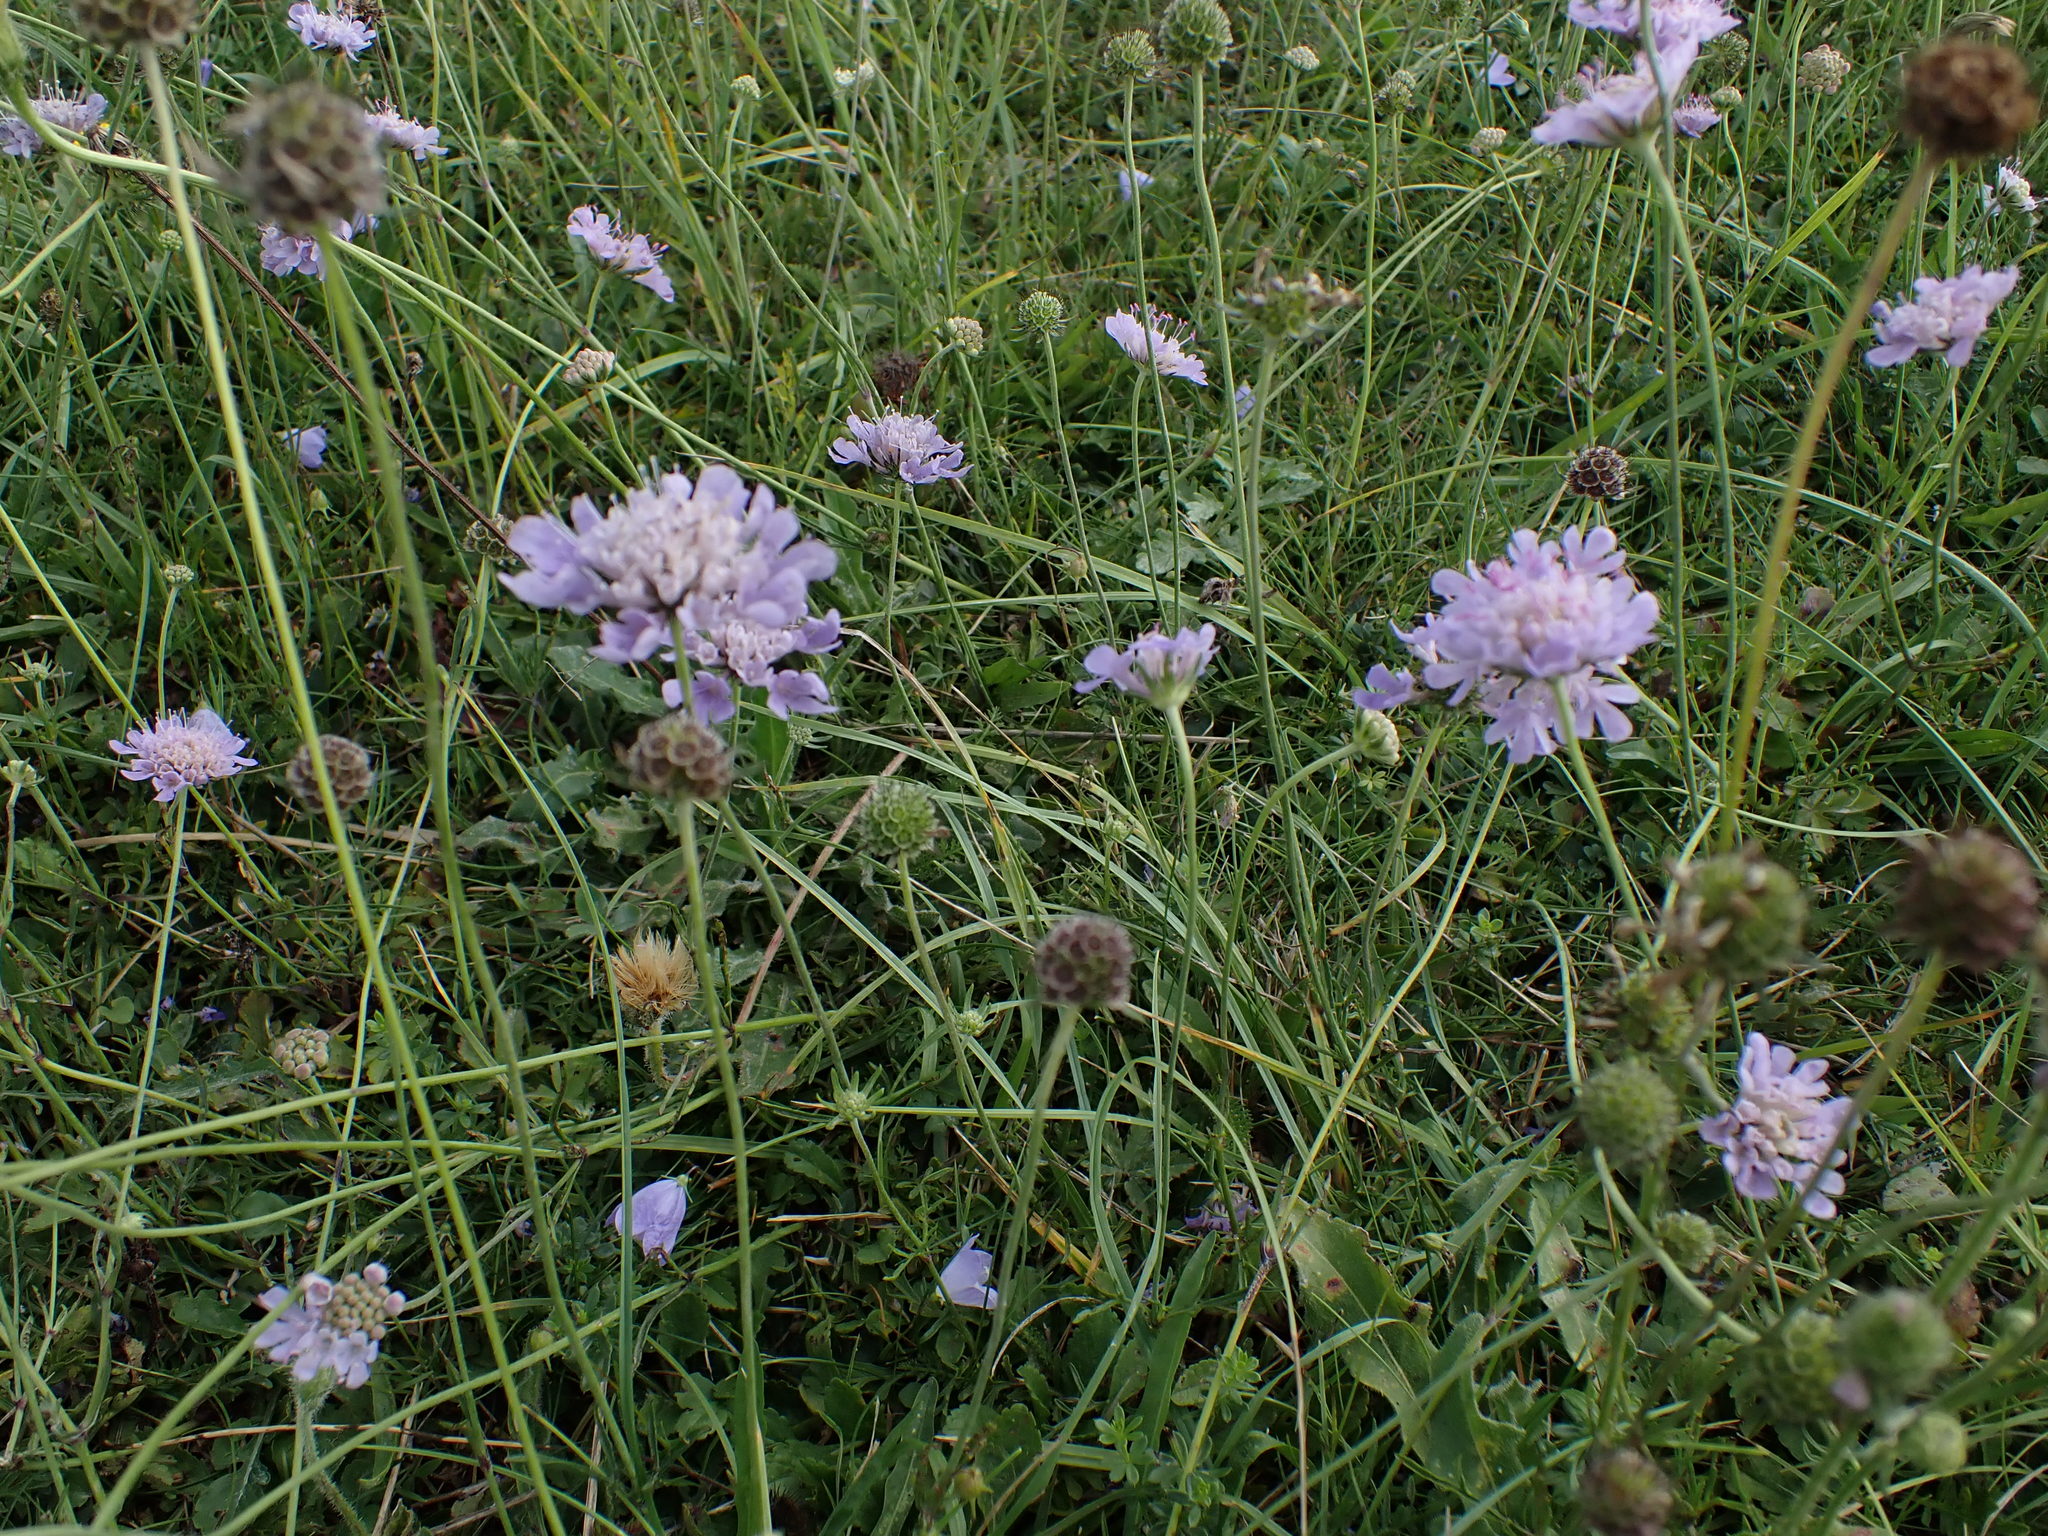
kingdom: Plantae
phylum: Tracheophyta
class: Magnoliopsida
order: Dipsacales
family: Caprifoliaceae
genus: Scabiosa
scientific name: Scabiosa columbaria
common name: Small scabious
